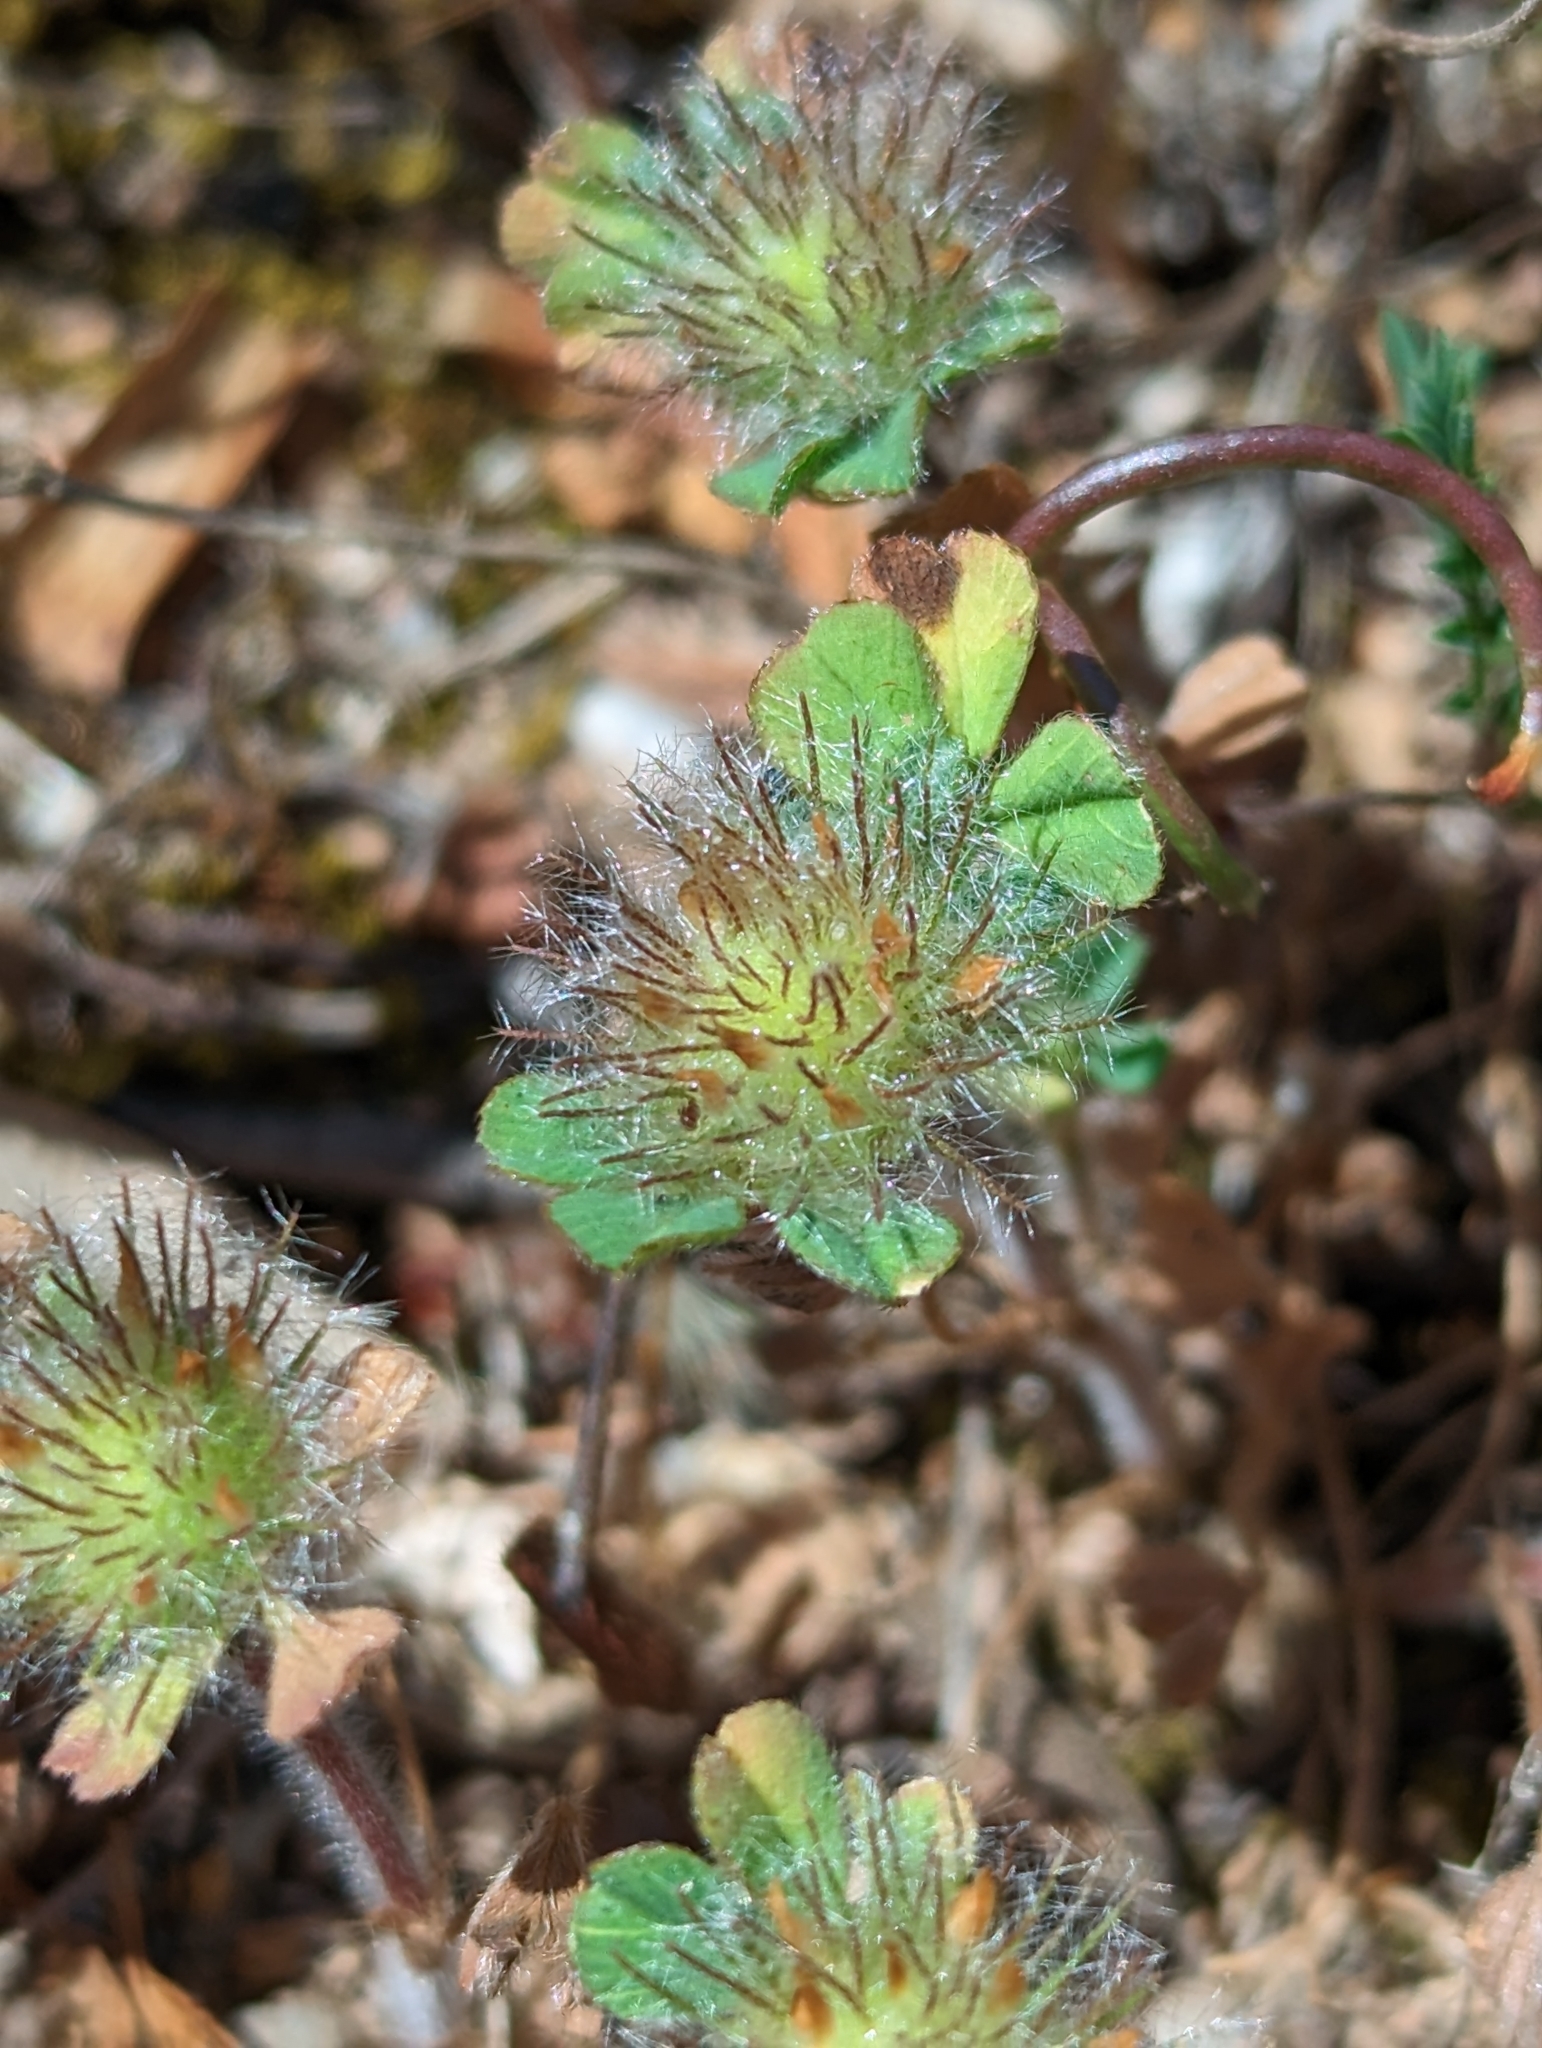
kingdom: Plantae
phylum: Tracheophyta
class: Magnoliopsida
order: Fabales
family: Fabaceae
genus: Trifolium
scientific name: Trifolium cherleri
